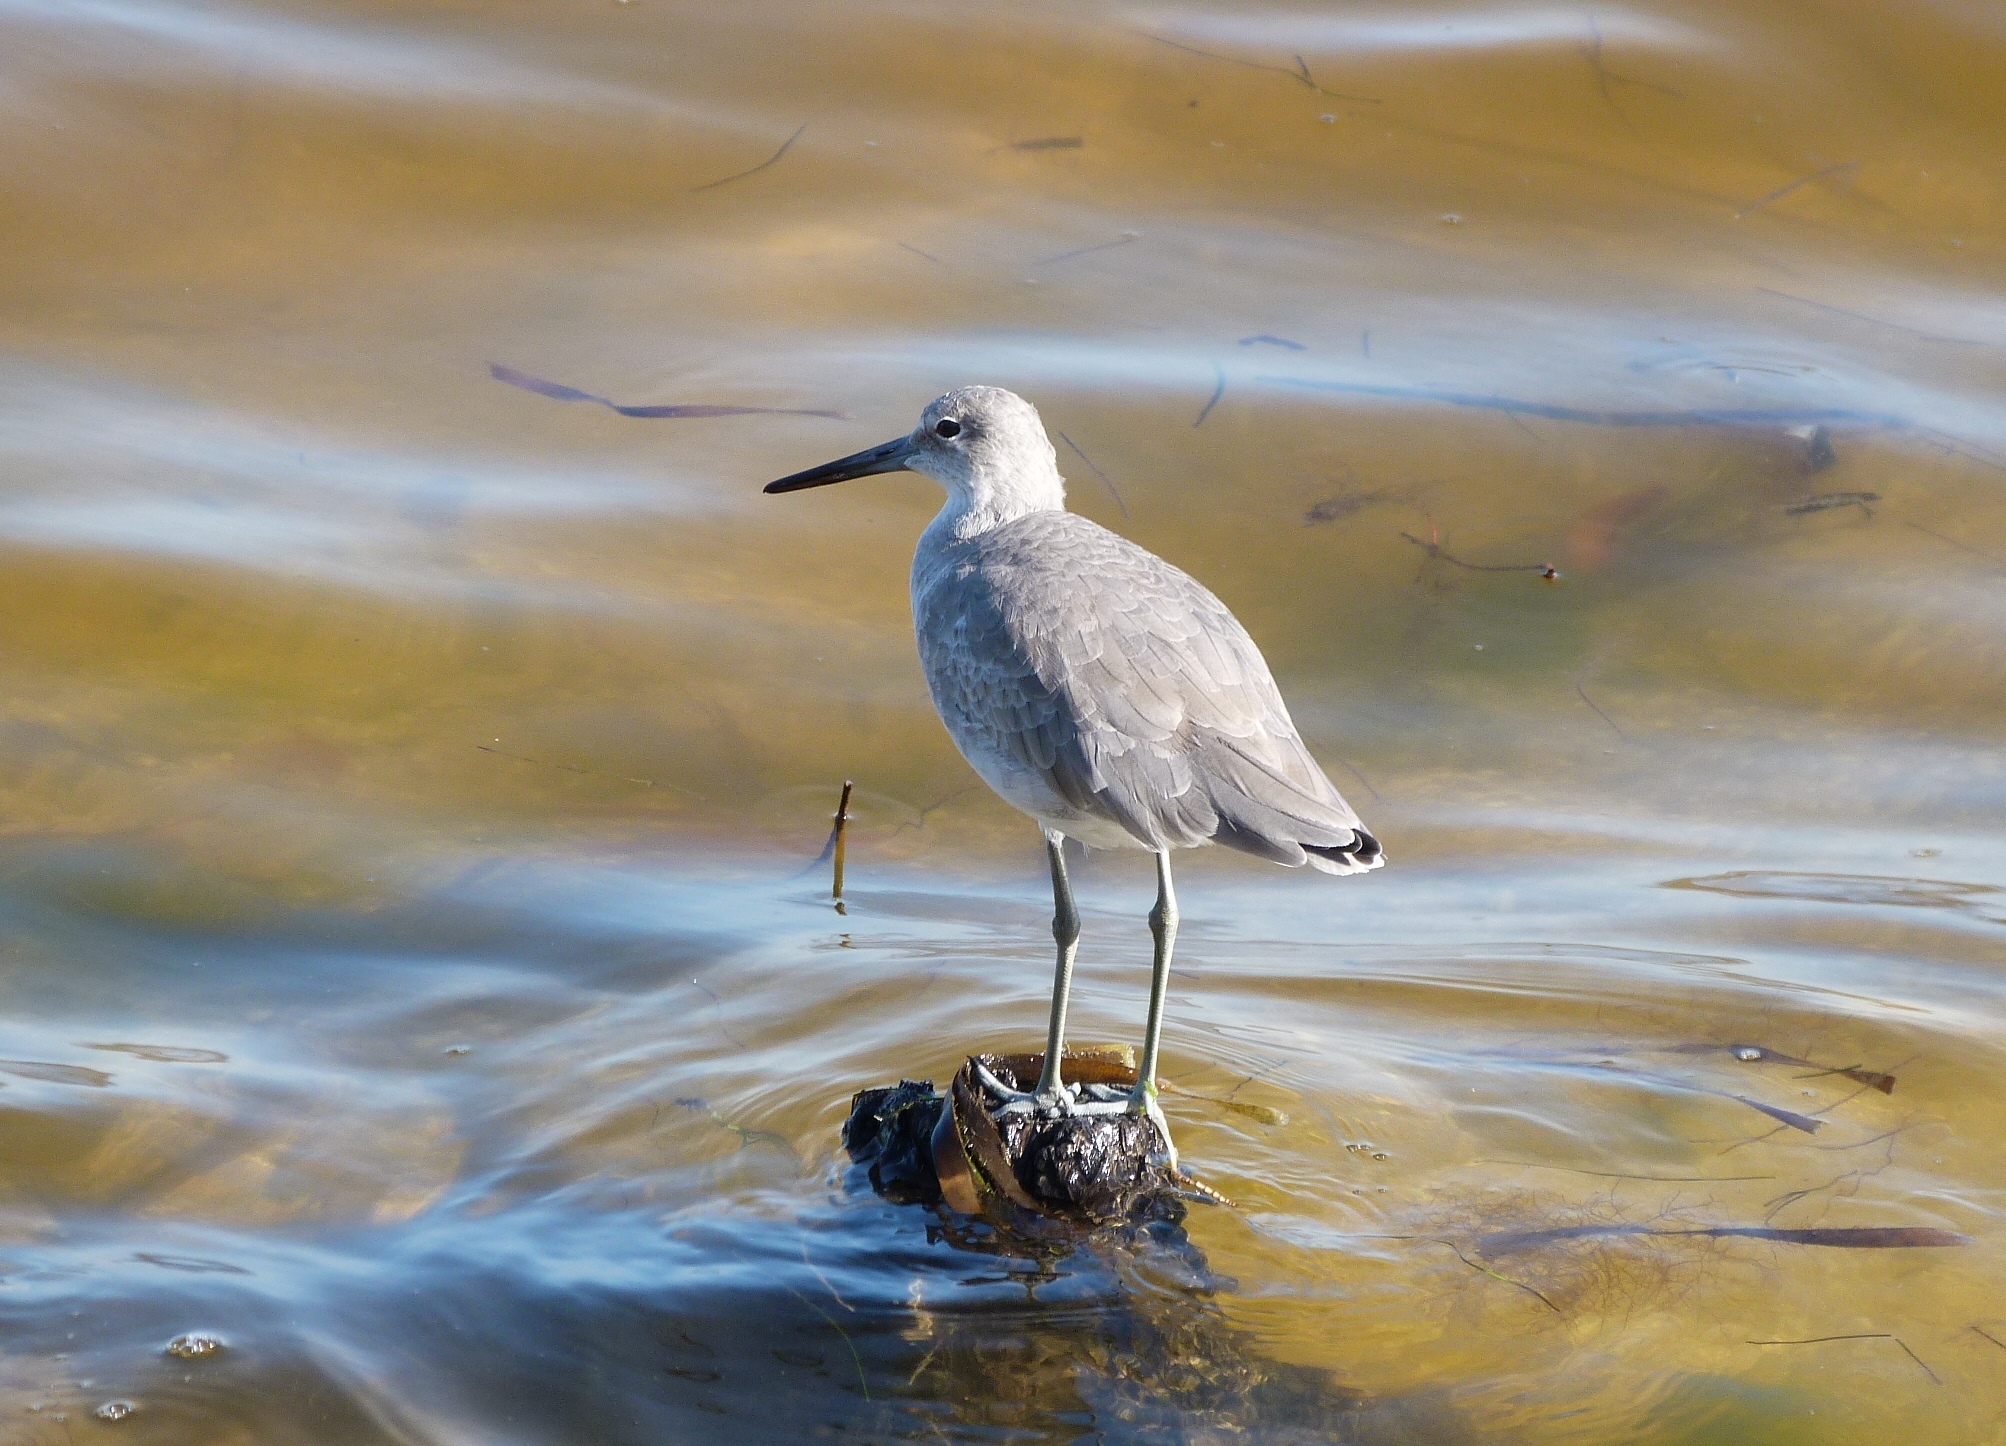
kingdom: Animalia
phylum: Chordata
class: Aves
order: Charadriiformes
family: Scolopacidae
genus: Tringa
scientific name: Tringa semipalmata
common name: Willet
